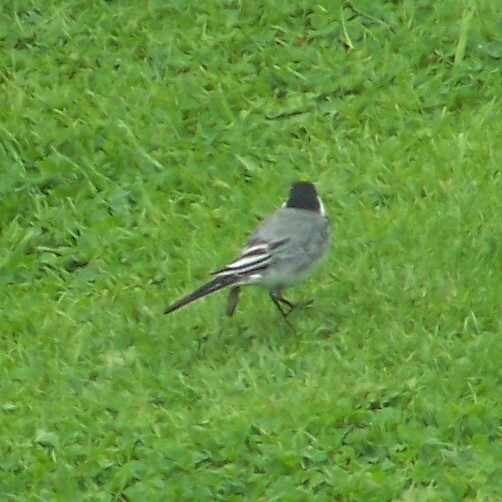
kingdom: Animalia
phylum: Chordata
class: Aves
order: Passeriformes
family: Motacillidae
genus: Motacilla
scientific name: Motacilla alba
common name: White wagtail
